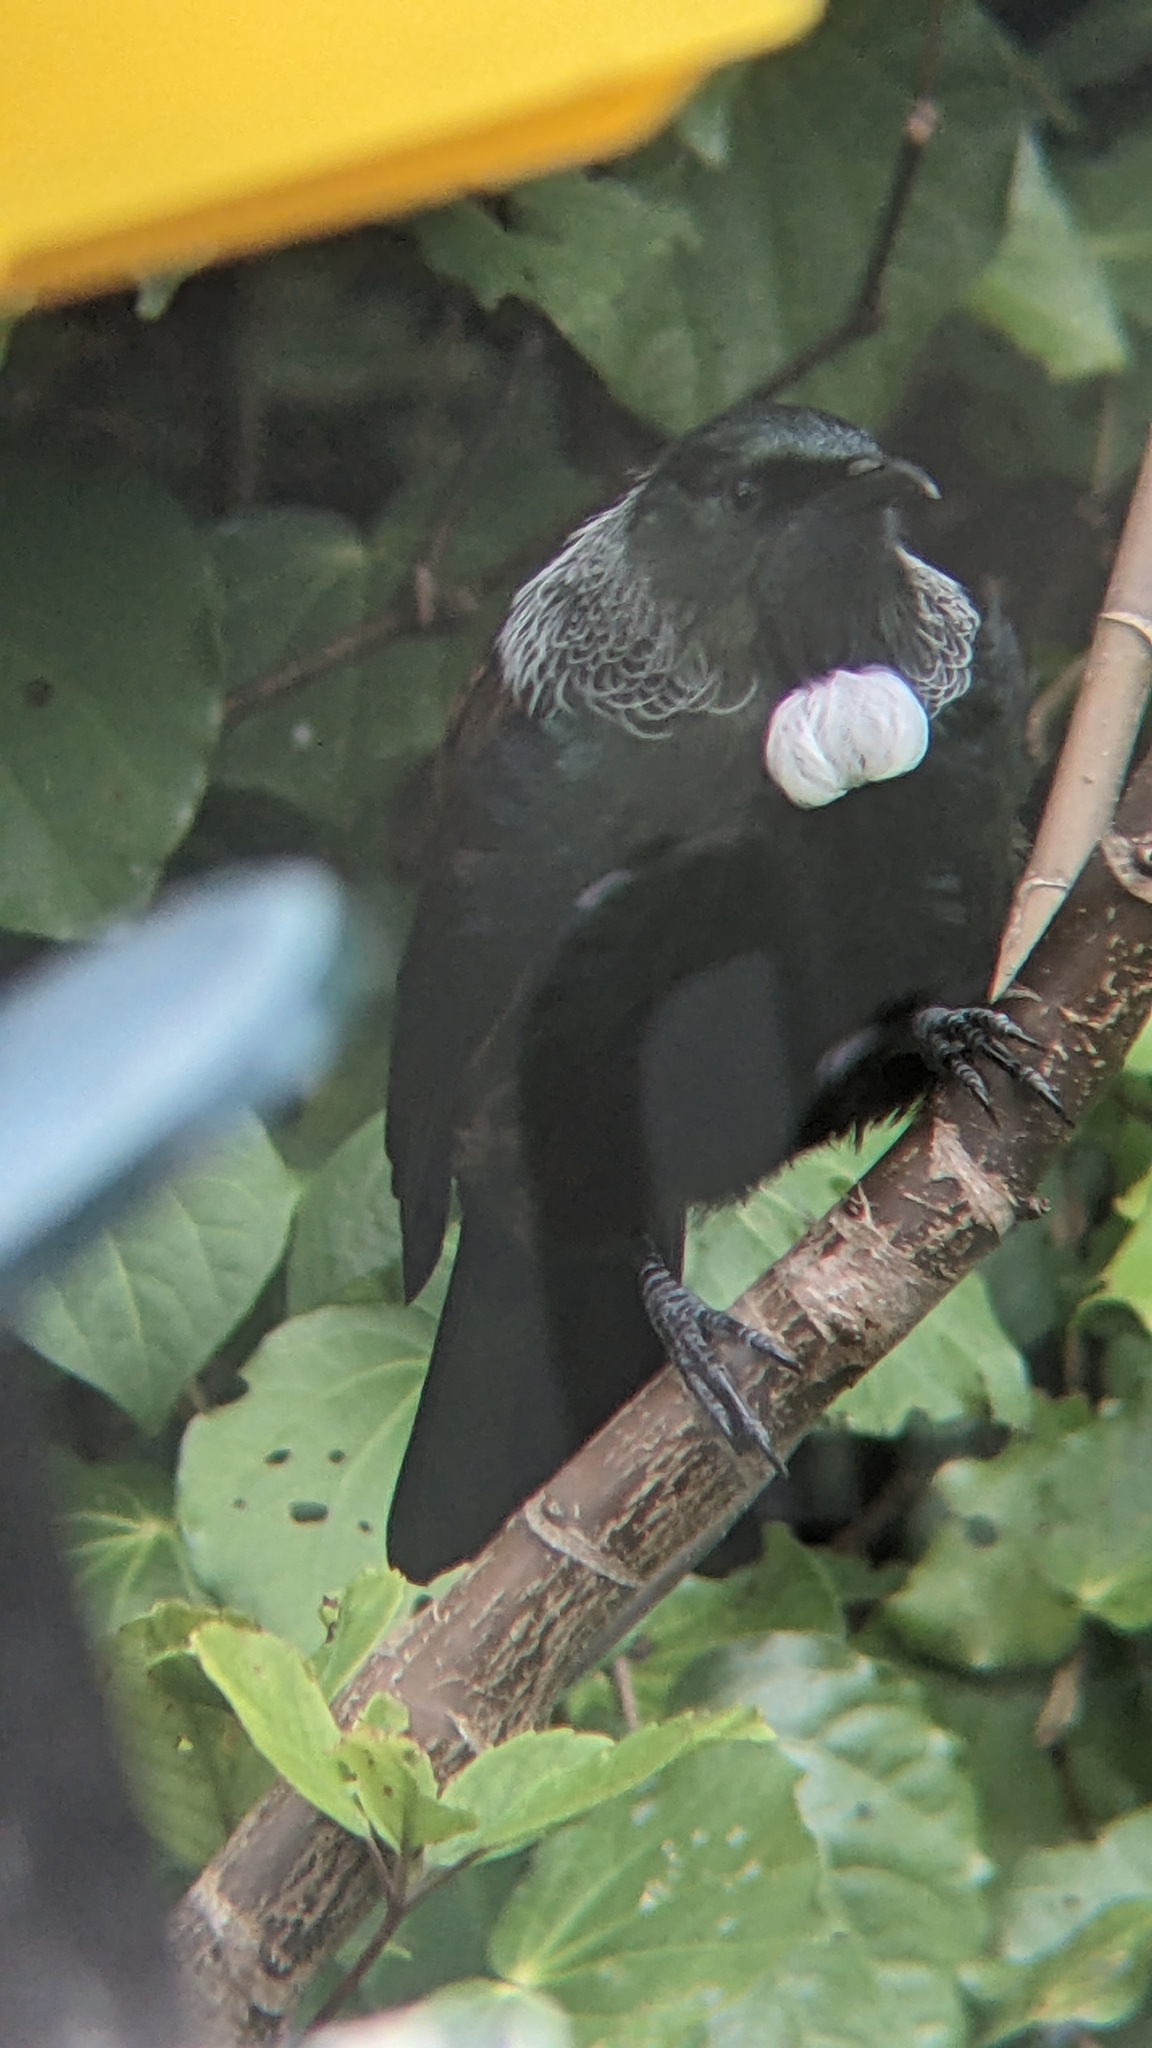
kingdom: Animalia
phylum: Chordata
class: Aves
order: Passeriformes
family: Meliphagidae
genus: Prosthemadera
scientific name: Prosthemadera novaeseelandiae
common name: Tui
